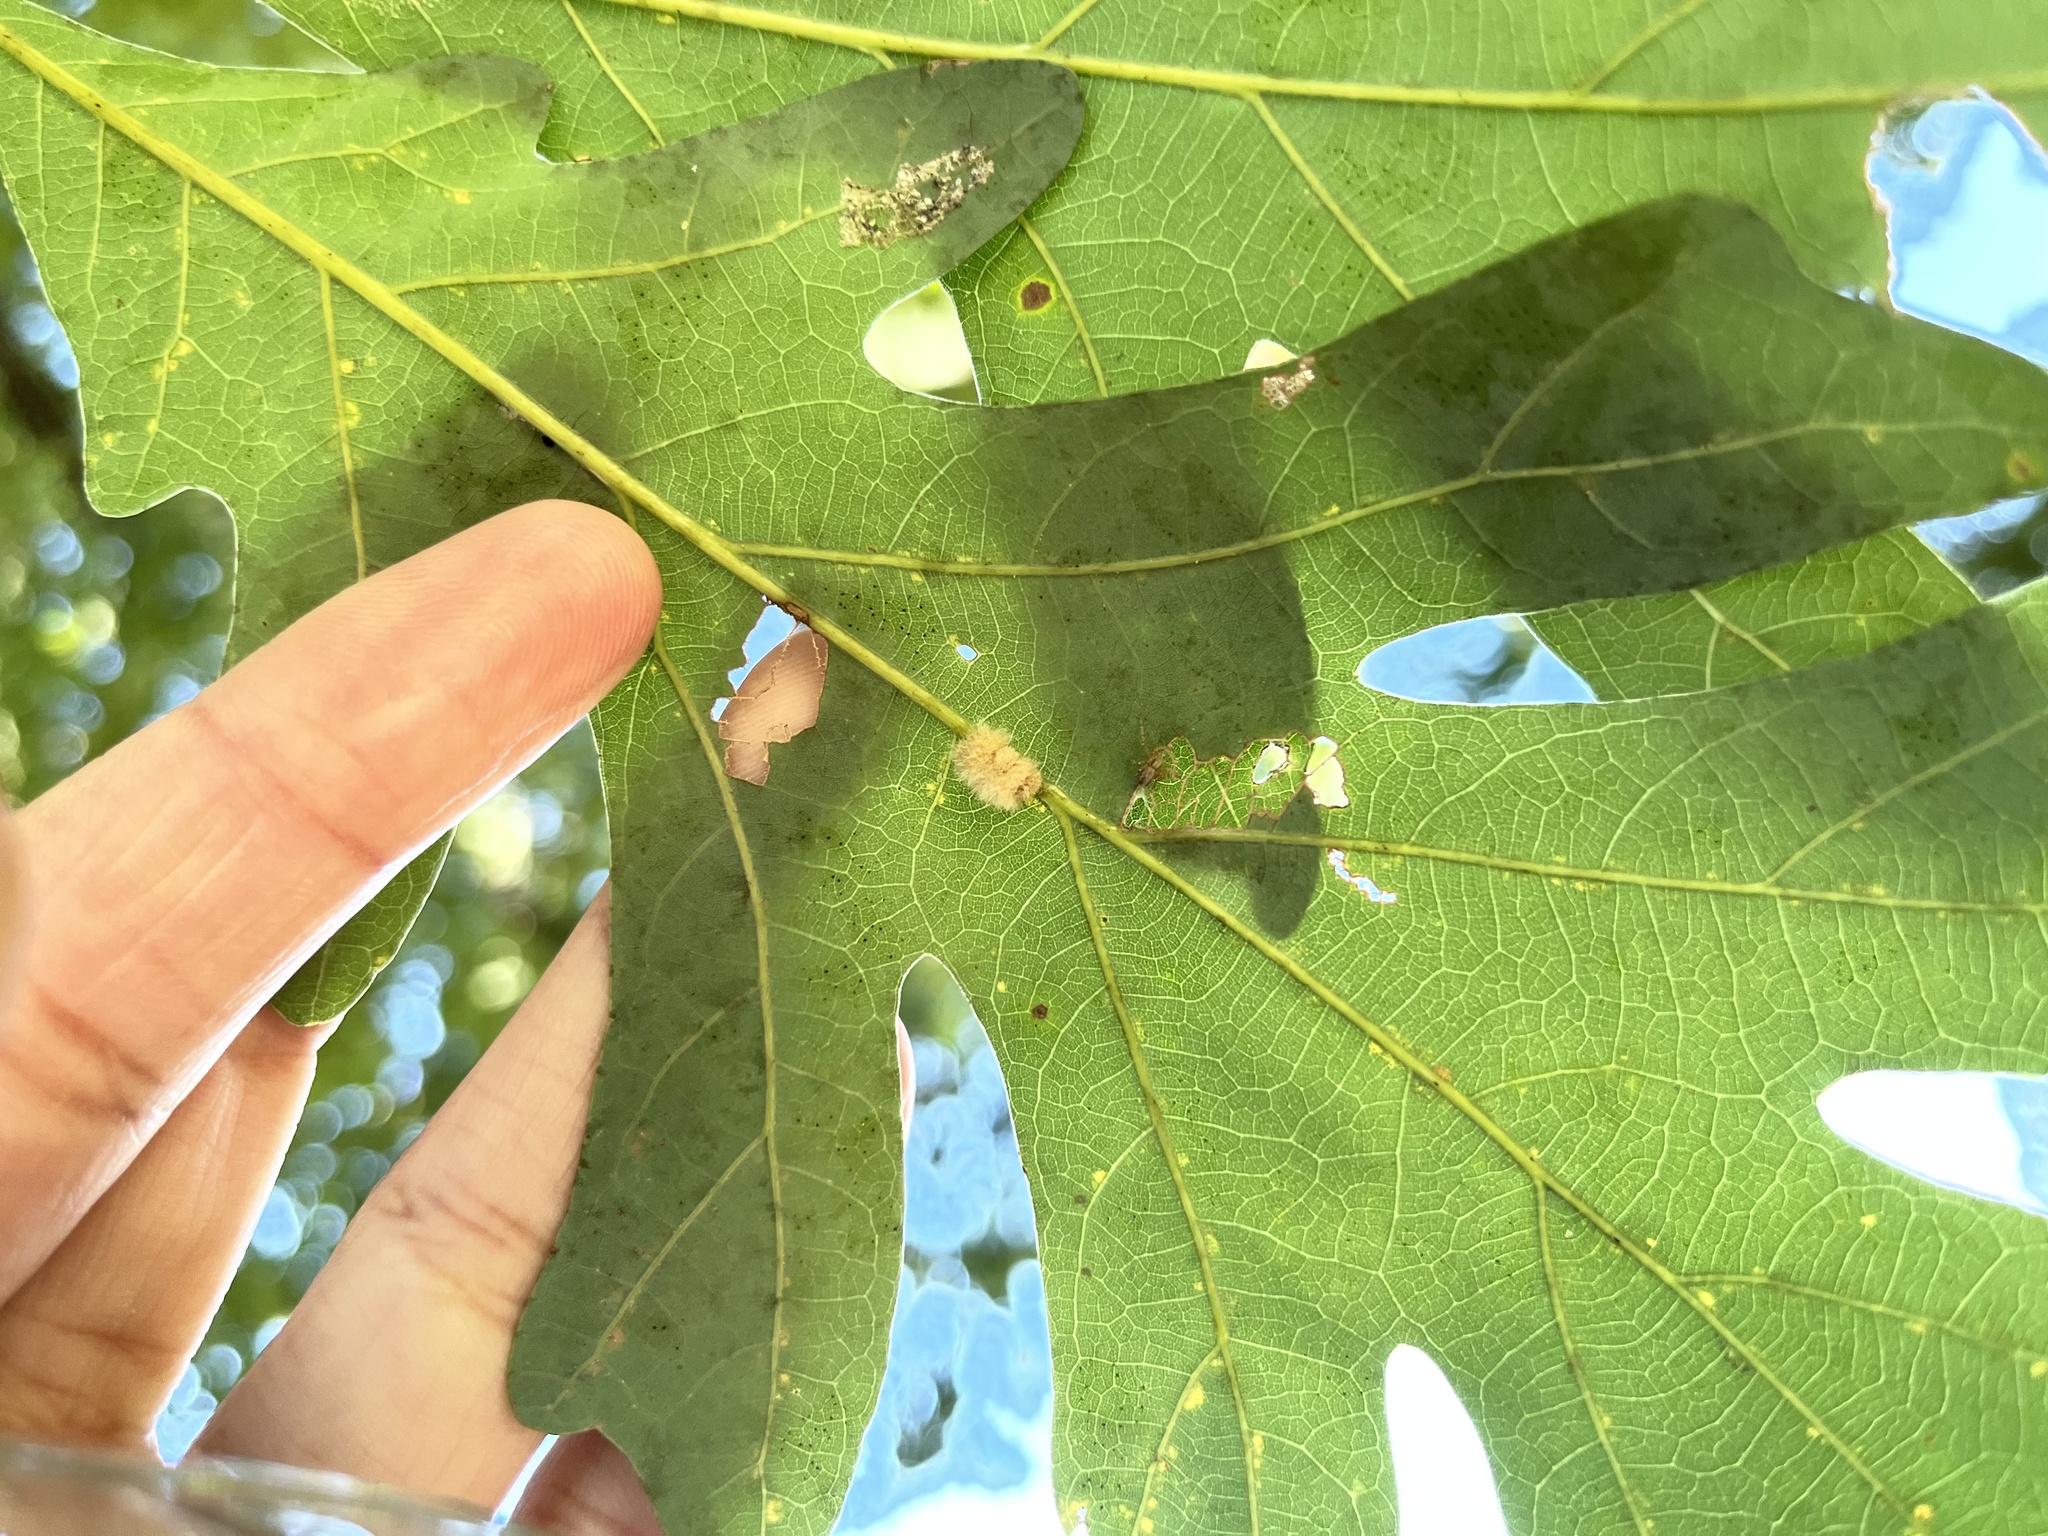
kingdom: Animalia
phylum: Arthropoda
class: Insecta
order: Hymenoptera
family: Cynipidae
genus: Andricus
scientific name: Andricus quercusflocci
